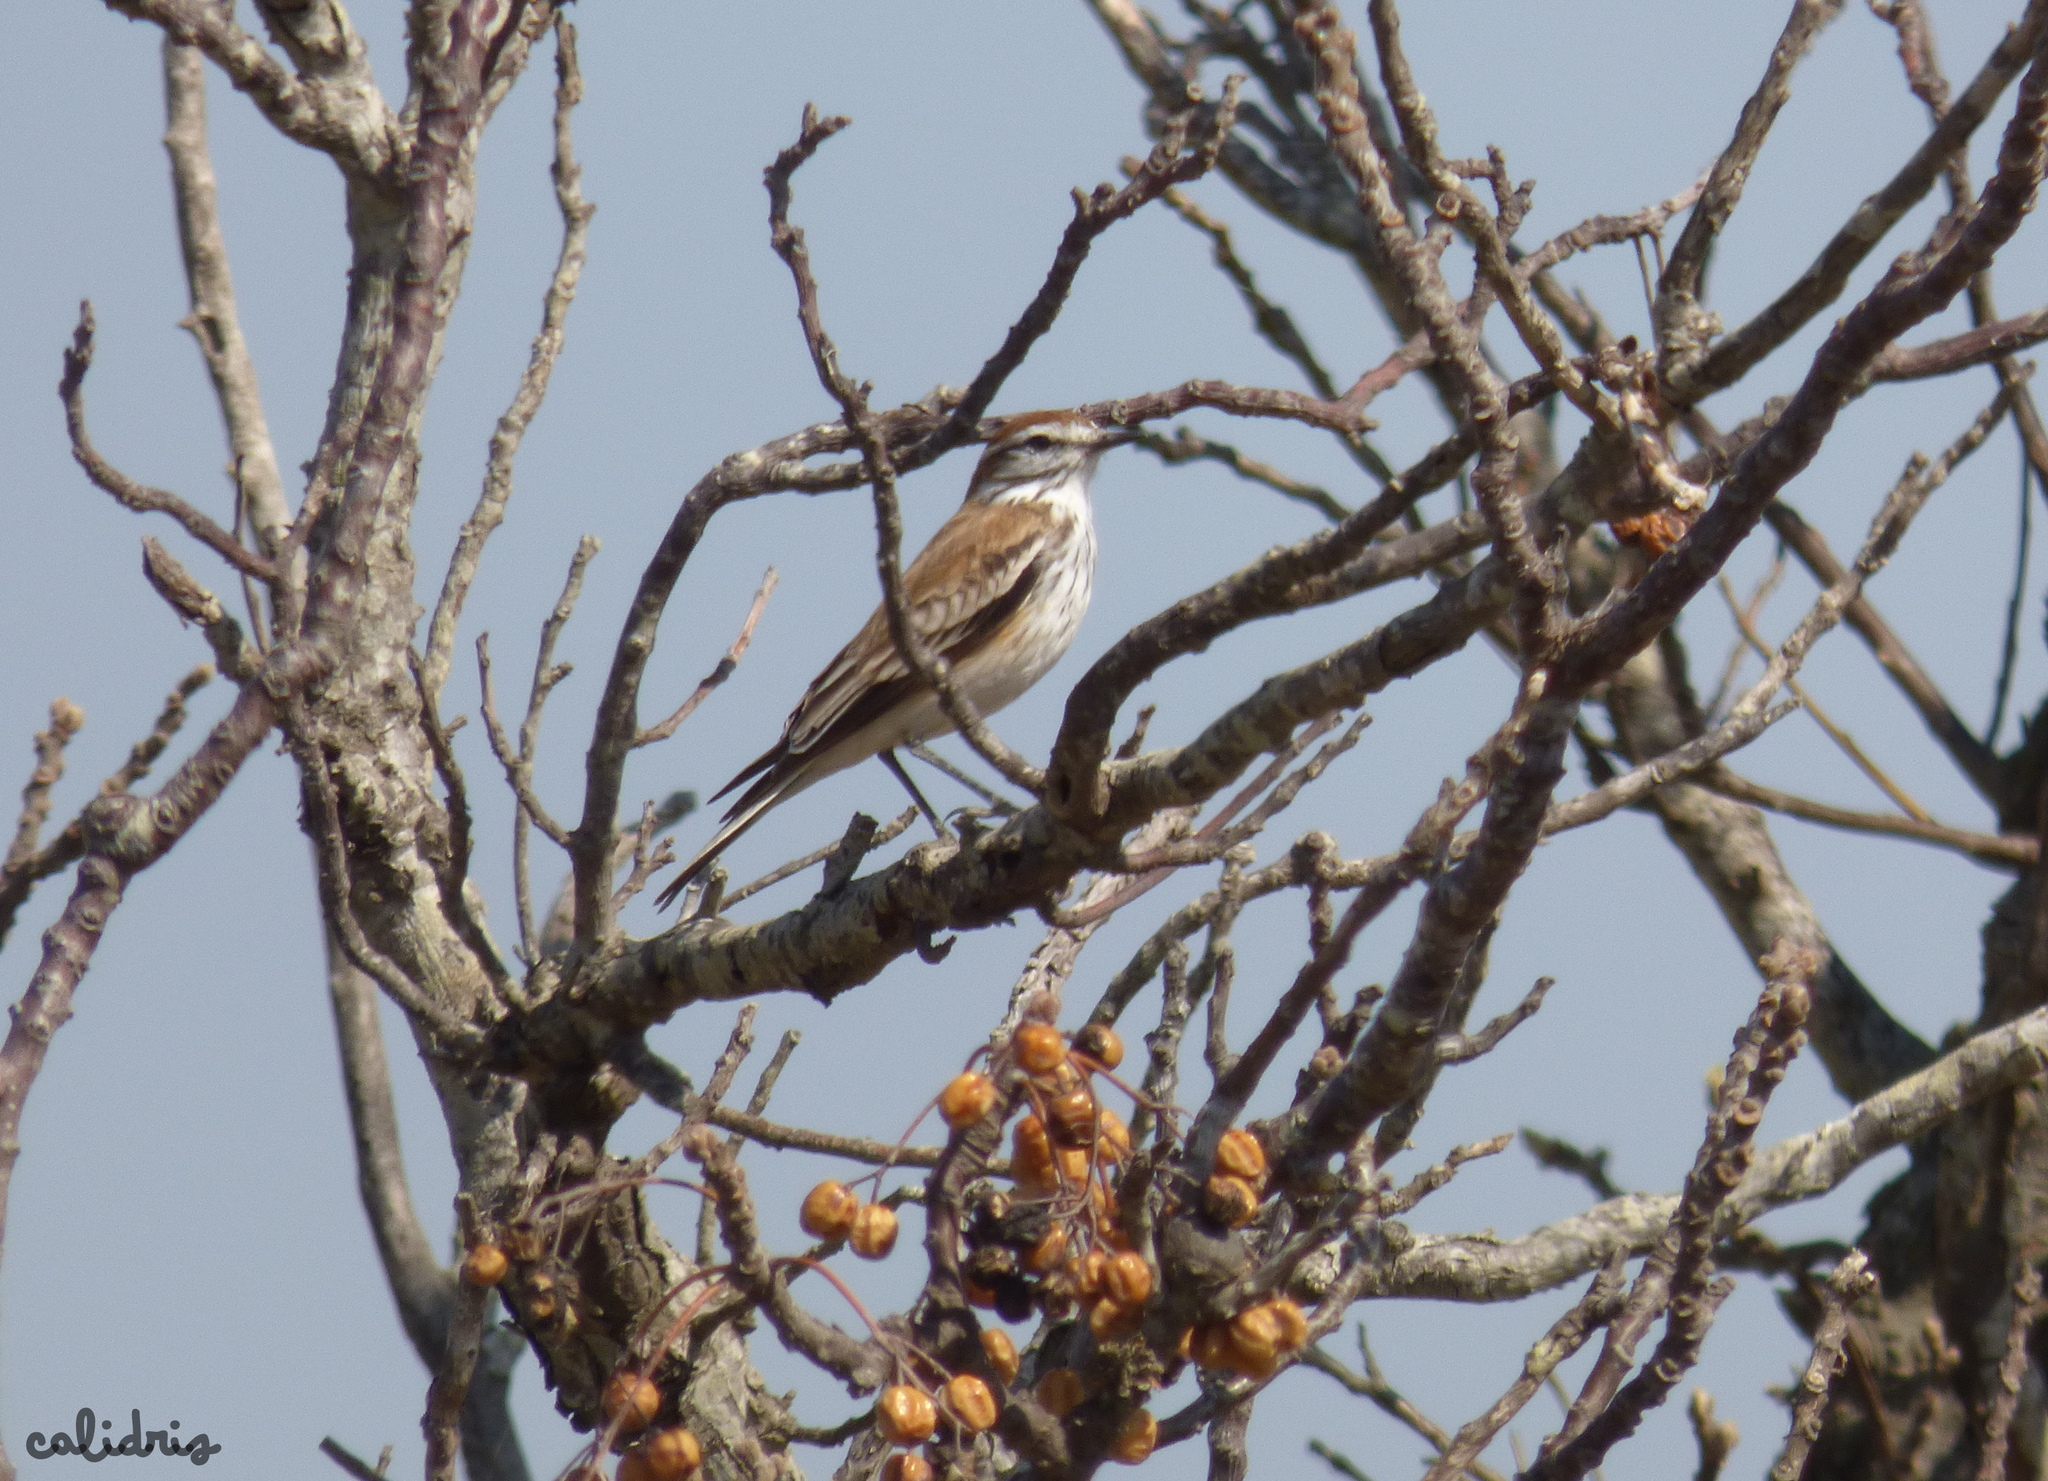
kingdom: Animalia
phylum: Chordata
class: Aves
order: Passeriformes
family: Tyrannidae
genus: Xolmis
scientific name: Xolmis rubetra
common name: Rusty-backed monjita
